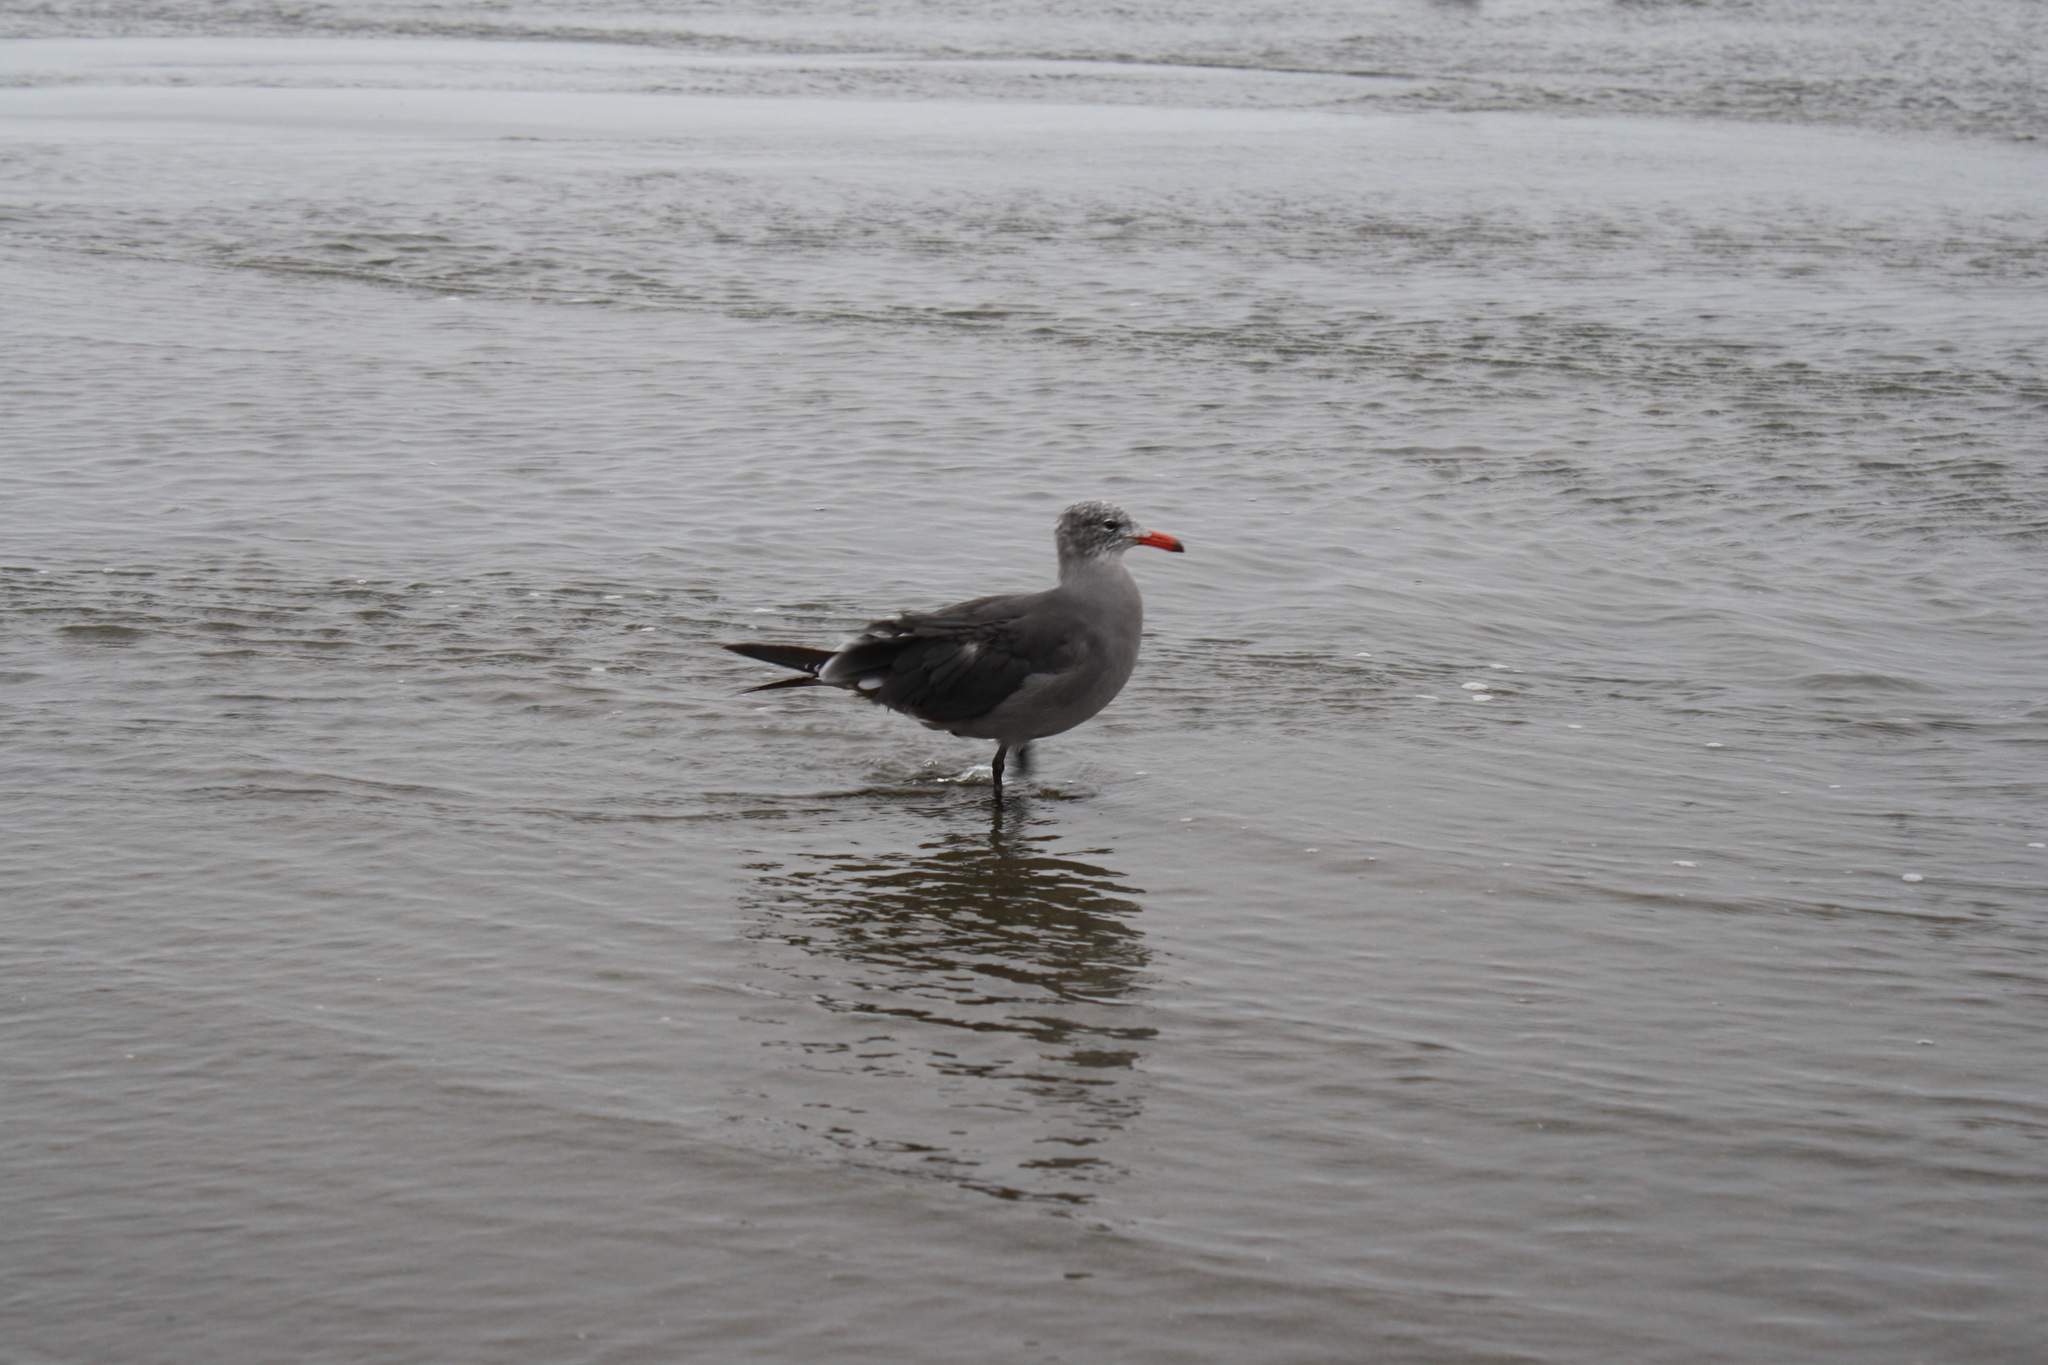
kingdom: Animalia
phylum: Chordata
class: Aves
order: Charadriiformes
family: Laridae
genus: Larus
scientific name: Larus heermanni
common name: Heermann's gull
